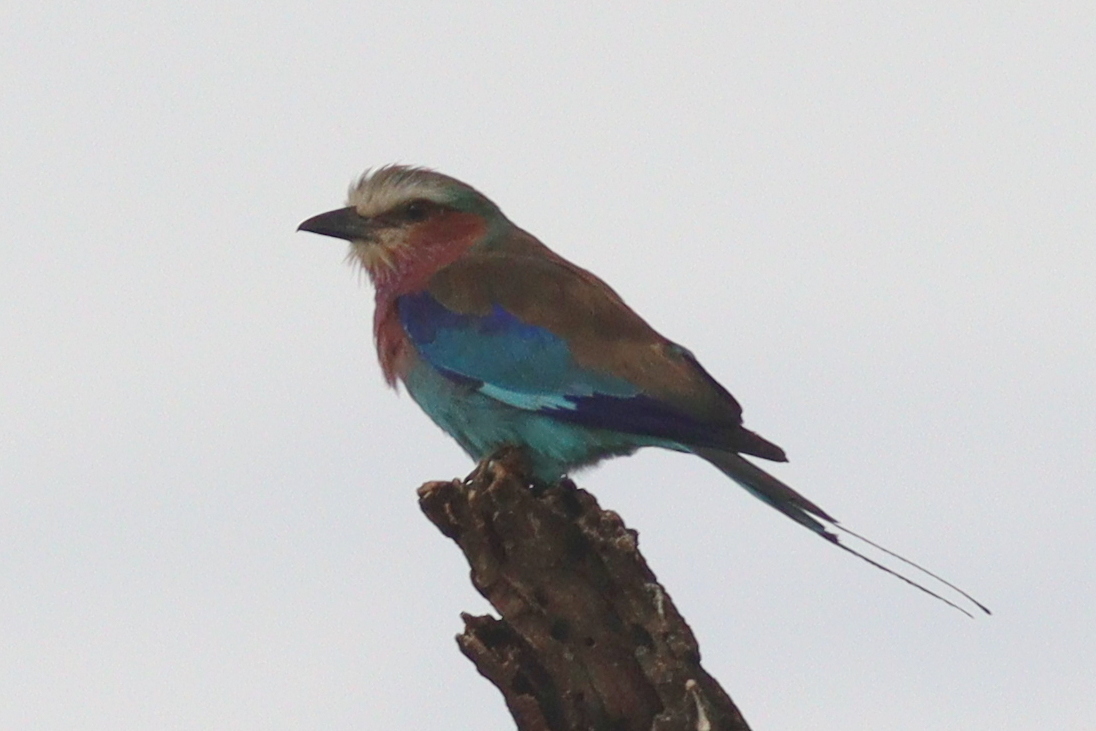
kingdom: Animalia
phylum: Chordata
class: Aves
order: Coraciiformes
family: Coraciidae
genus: Coracias
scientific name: Coracias caudatus
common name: Lilac-breasted roller
